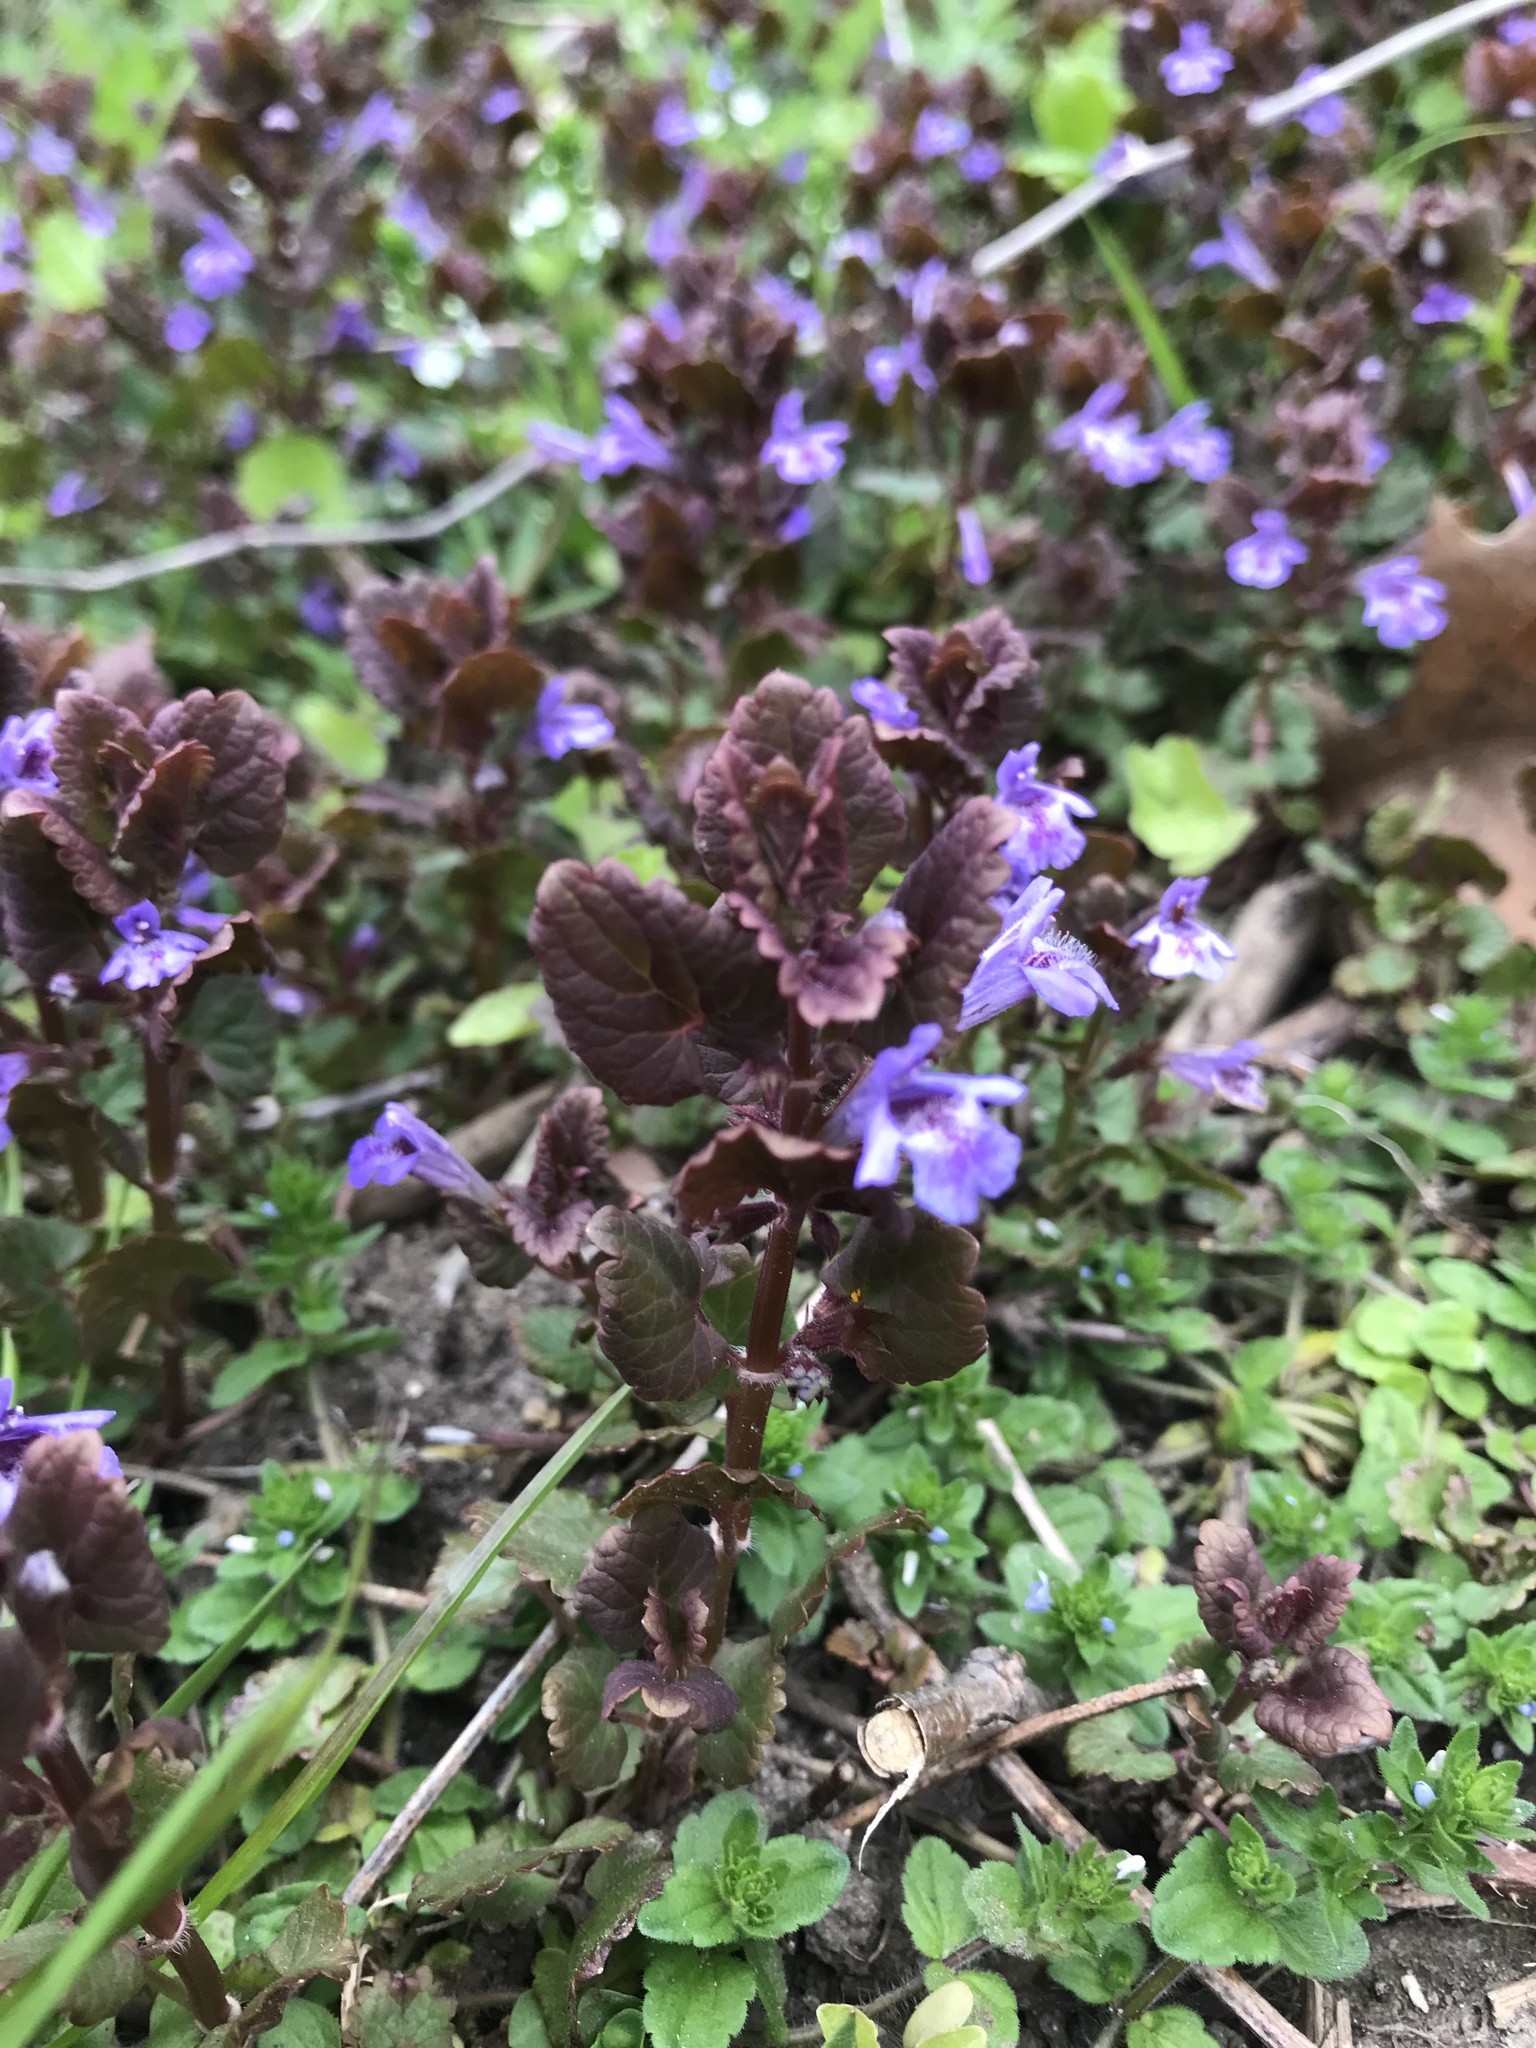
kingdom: Plantae
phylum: Tracheophyta
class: Magnoliopsida
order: Lamiales
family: Lamiaceae
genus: Glechoma
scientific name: Glechoma hederacea
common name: Ground ivy
